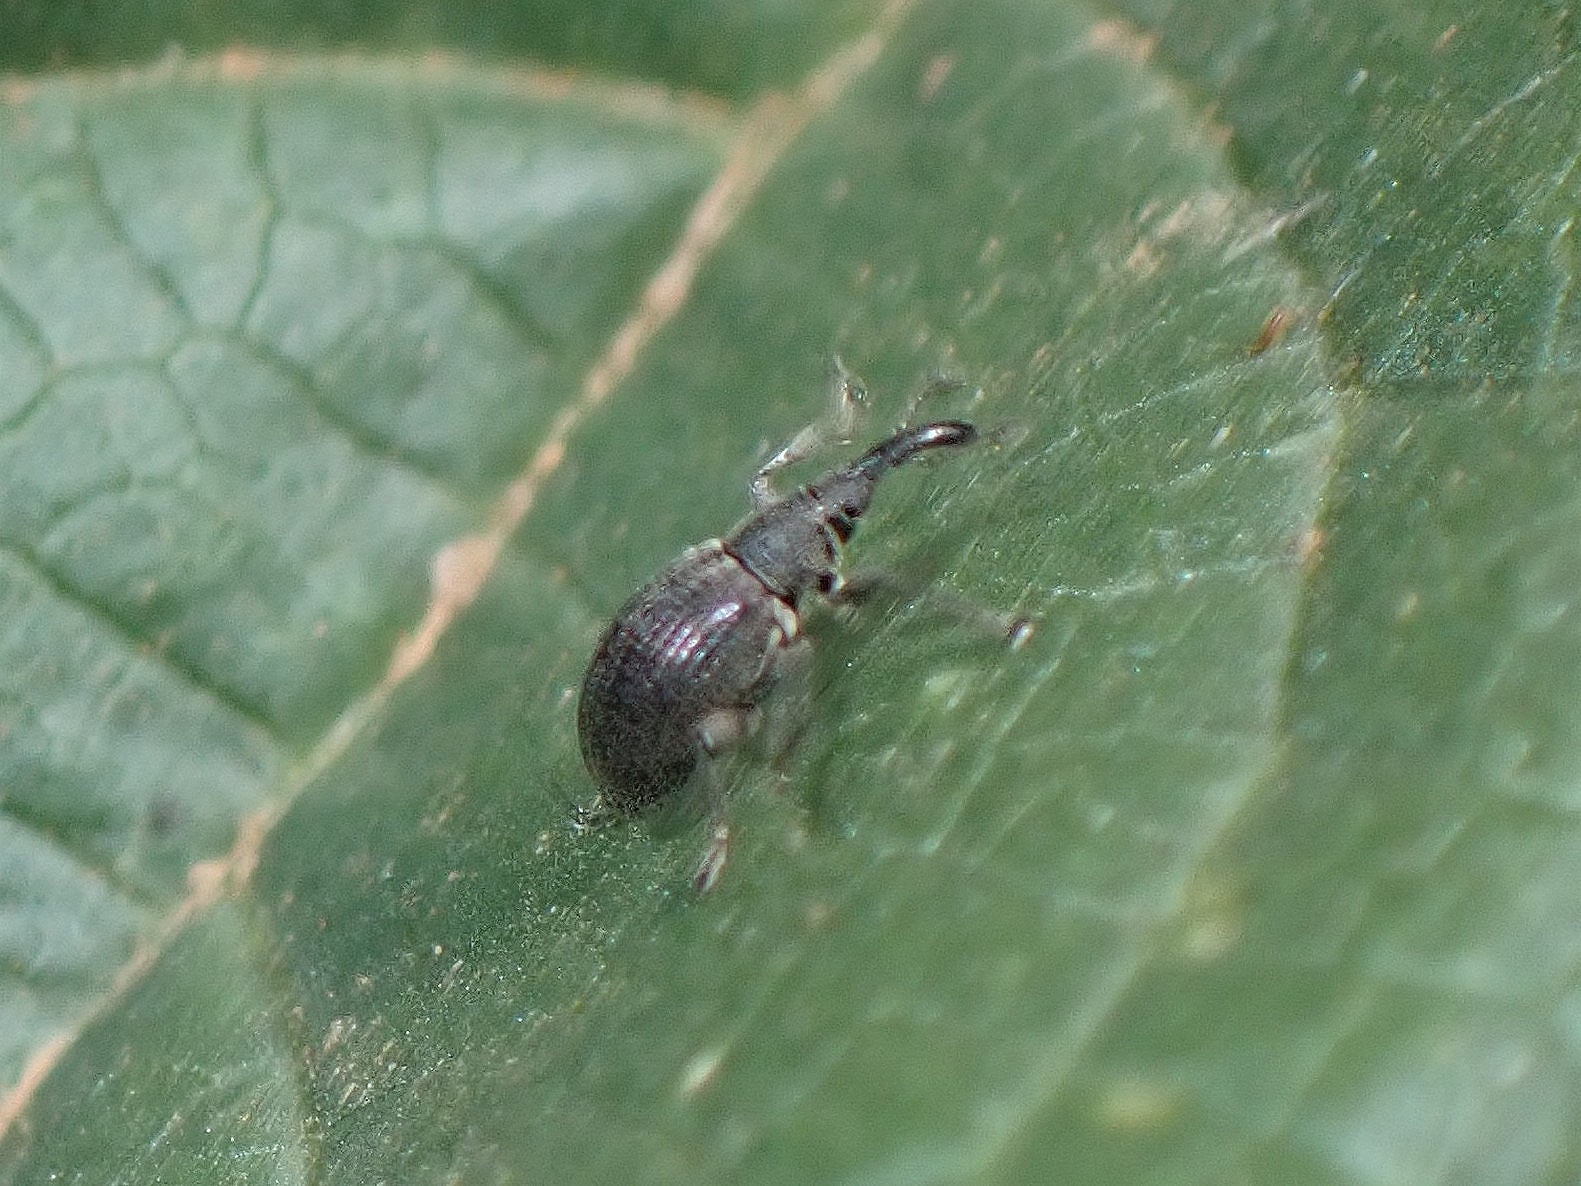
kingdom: Animalia
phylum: Arthropoda
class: Insecta
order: Coleoptera
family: Brentidae
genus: Perapion
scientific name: Perapion
